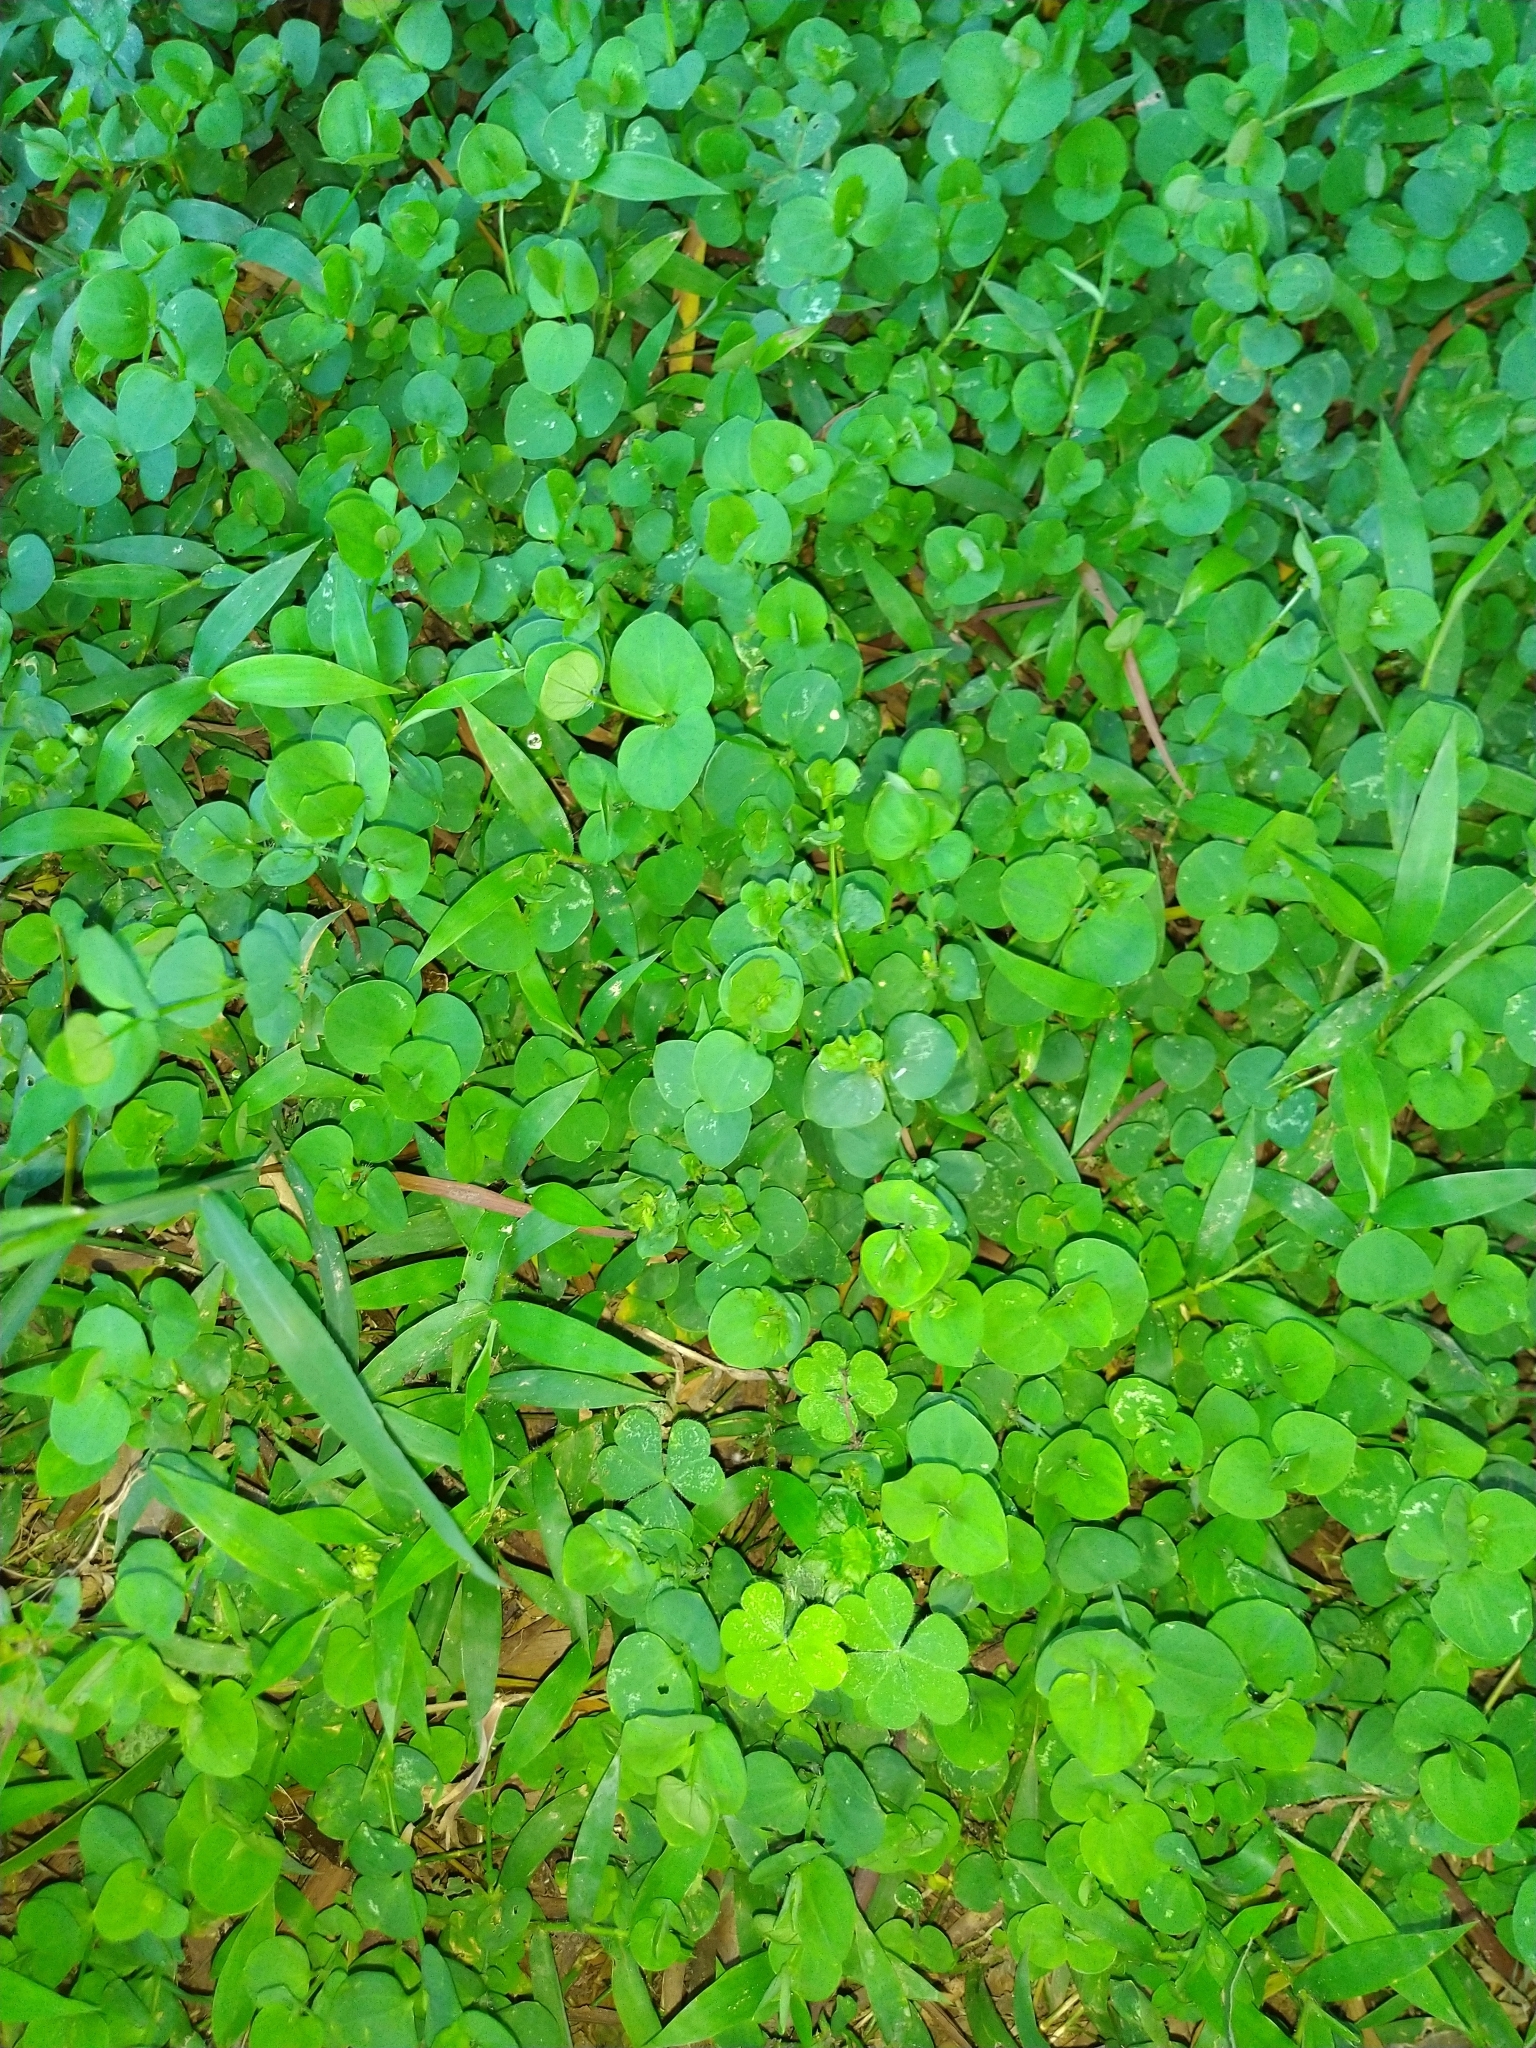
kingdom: Plantae
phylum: Tracheophyta
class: Magnoliopsida
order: Caryophyllales
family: Caryophyllaceae
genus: Drymaria
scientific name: Drymaria cordata
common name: Whitesnow
